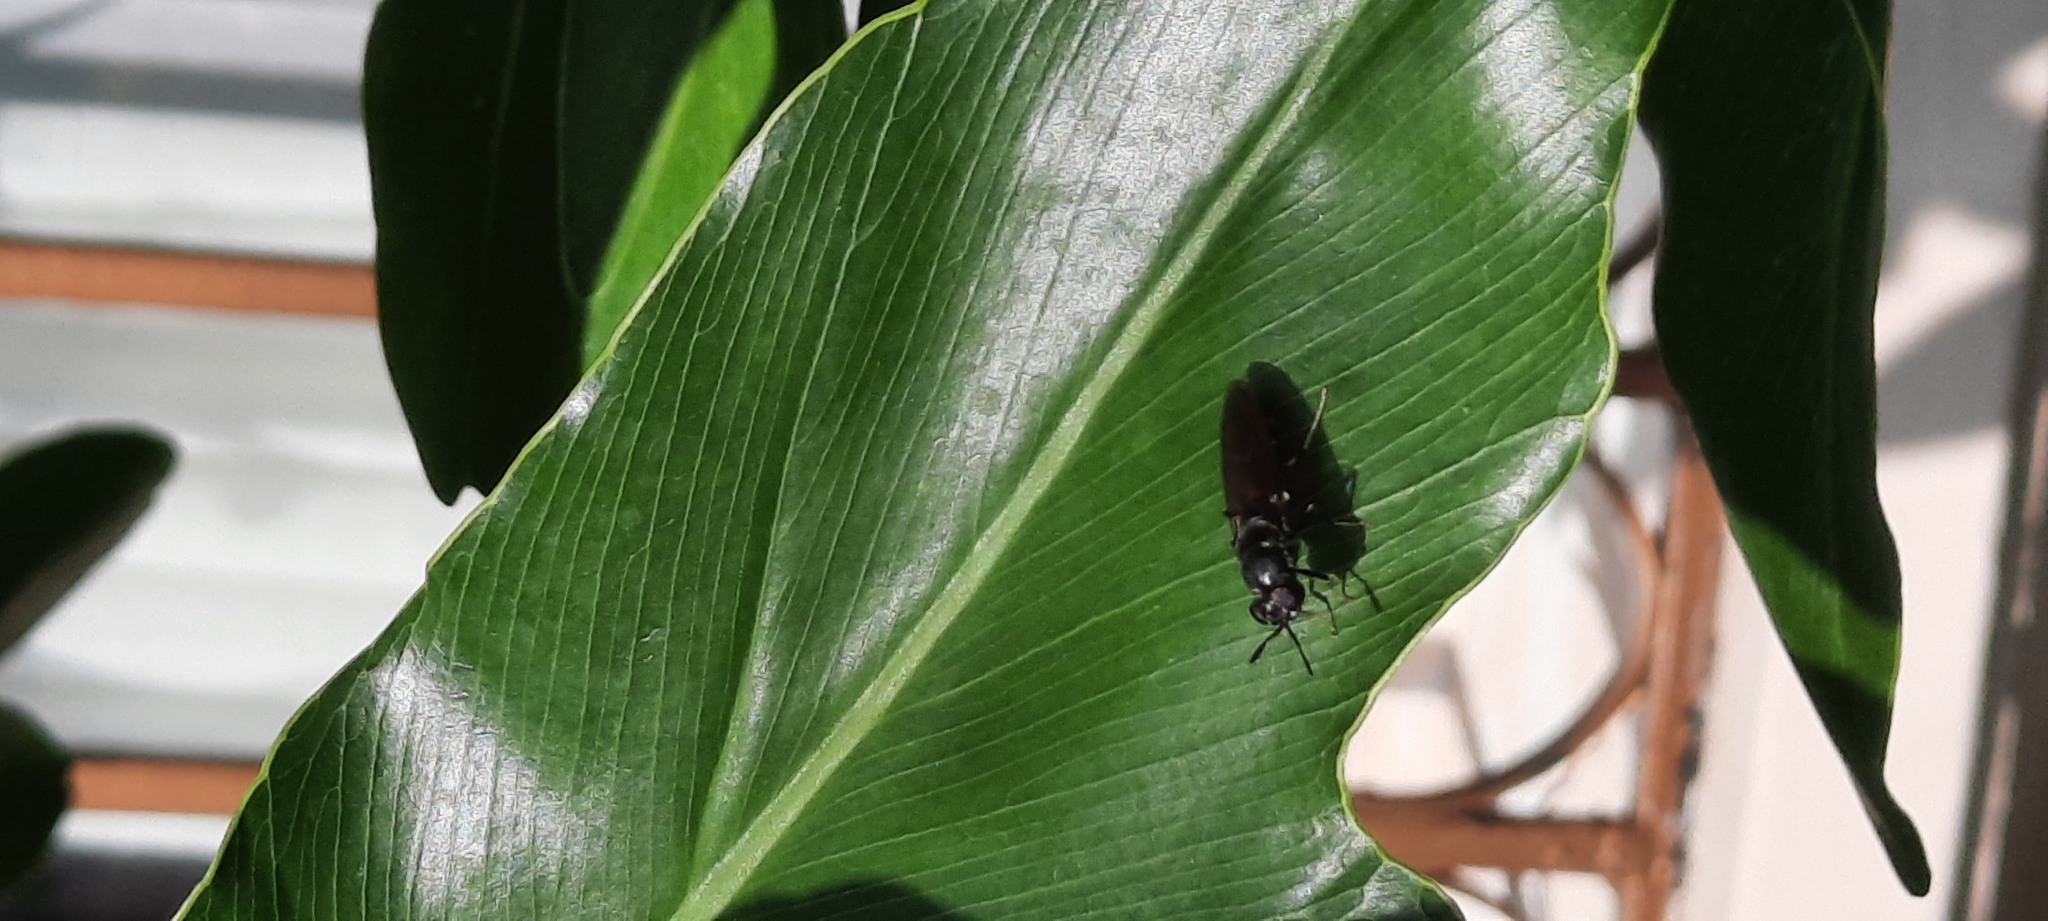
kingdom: Animalia
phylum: Arthropoda
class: Insecta
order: Diptera
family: Stratiomyidae
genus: Hermetia
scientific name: Hermetia illucens
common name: Black soldier fly
